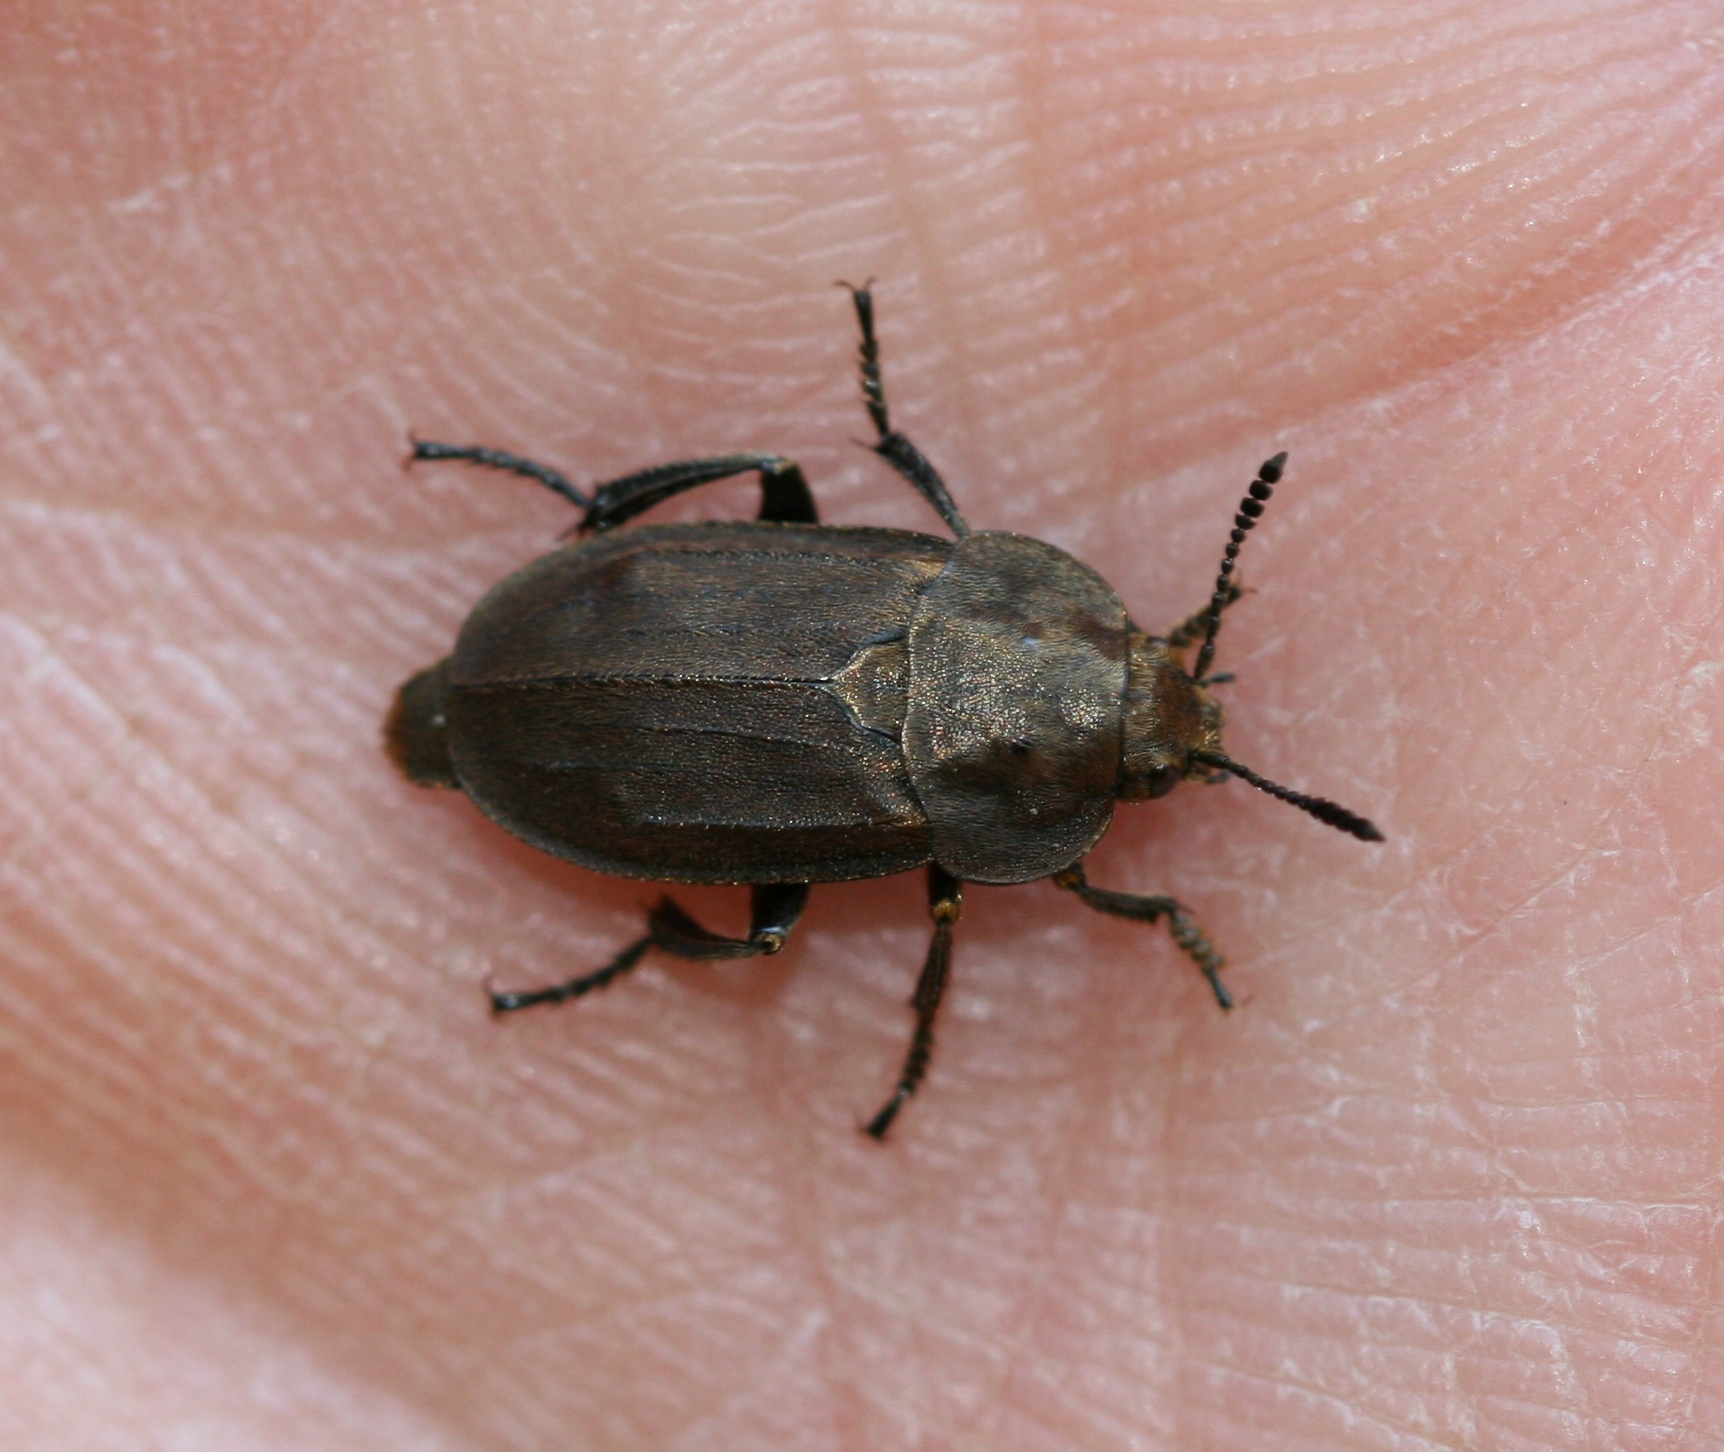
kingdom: Animalia
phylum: Arthropoda
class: Insecta
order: Coleoptera
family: Staphylinidae
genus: Aclypea
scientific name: Aclypea opaca
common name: Silphid beetle
